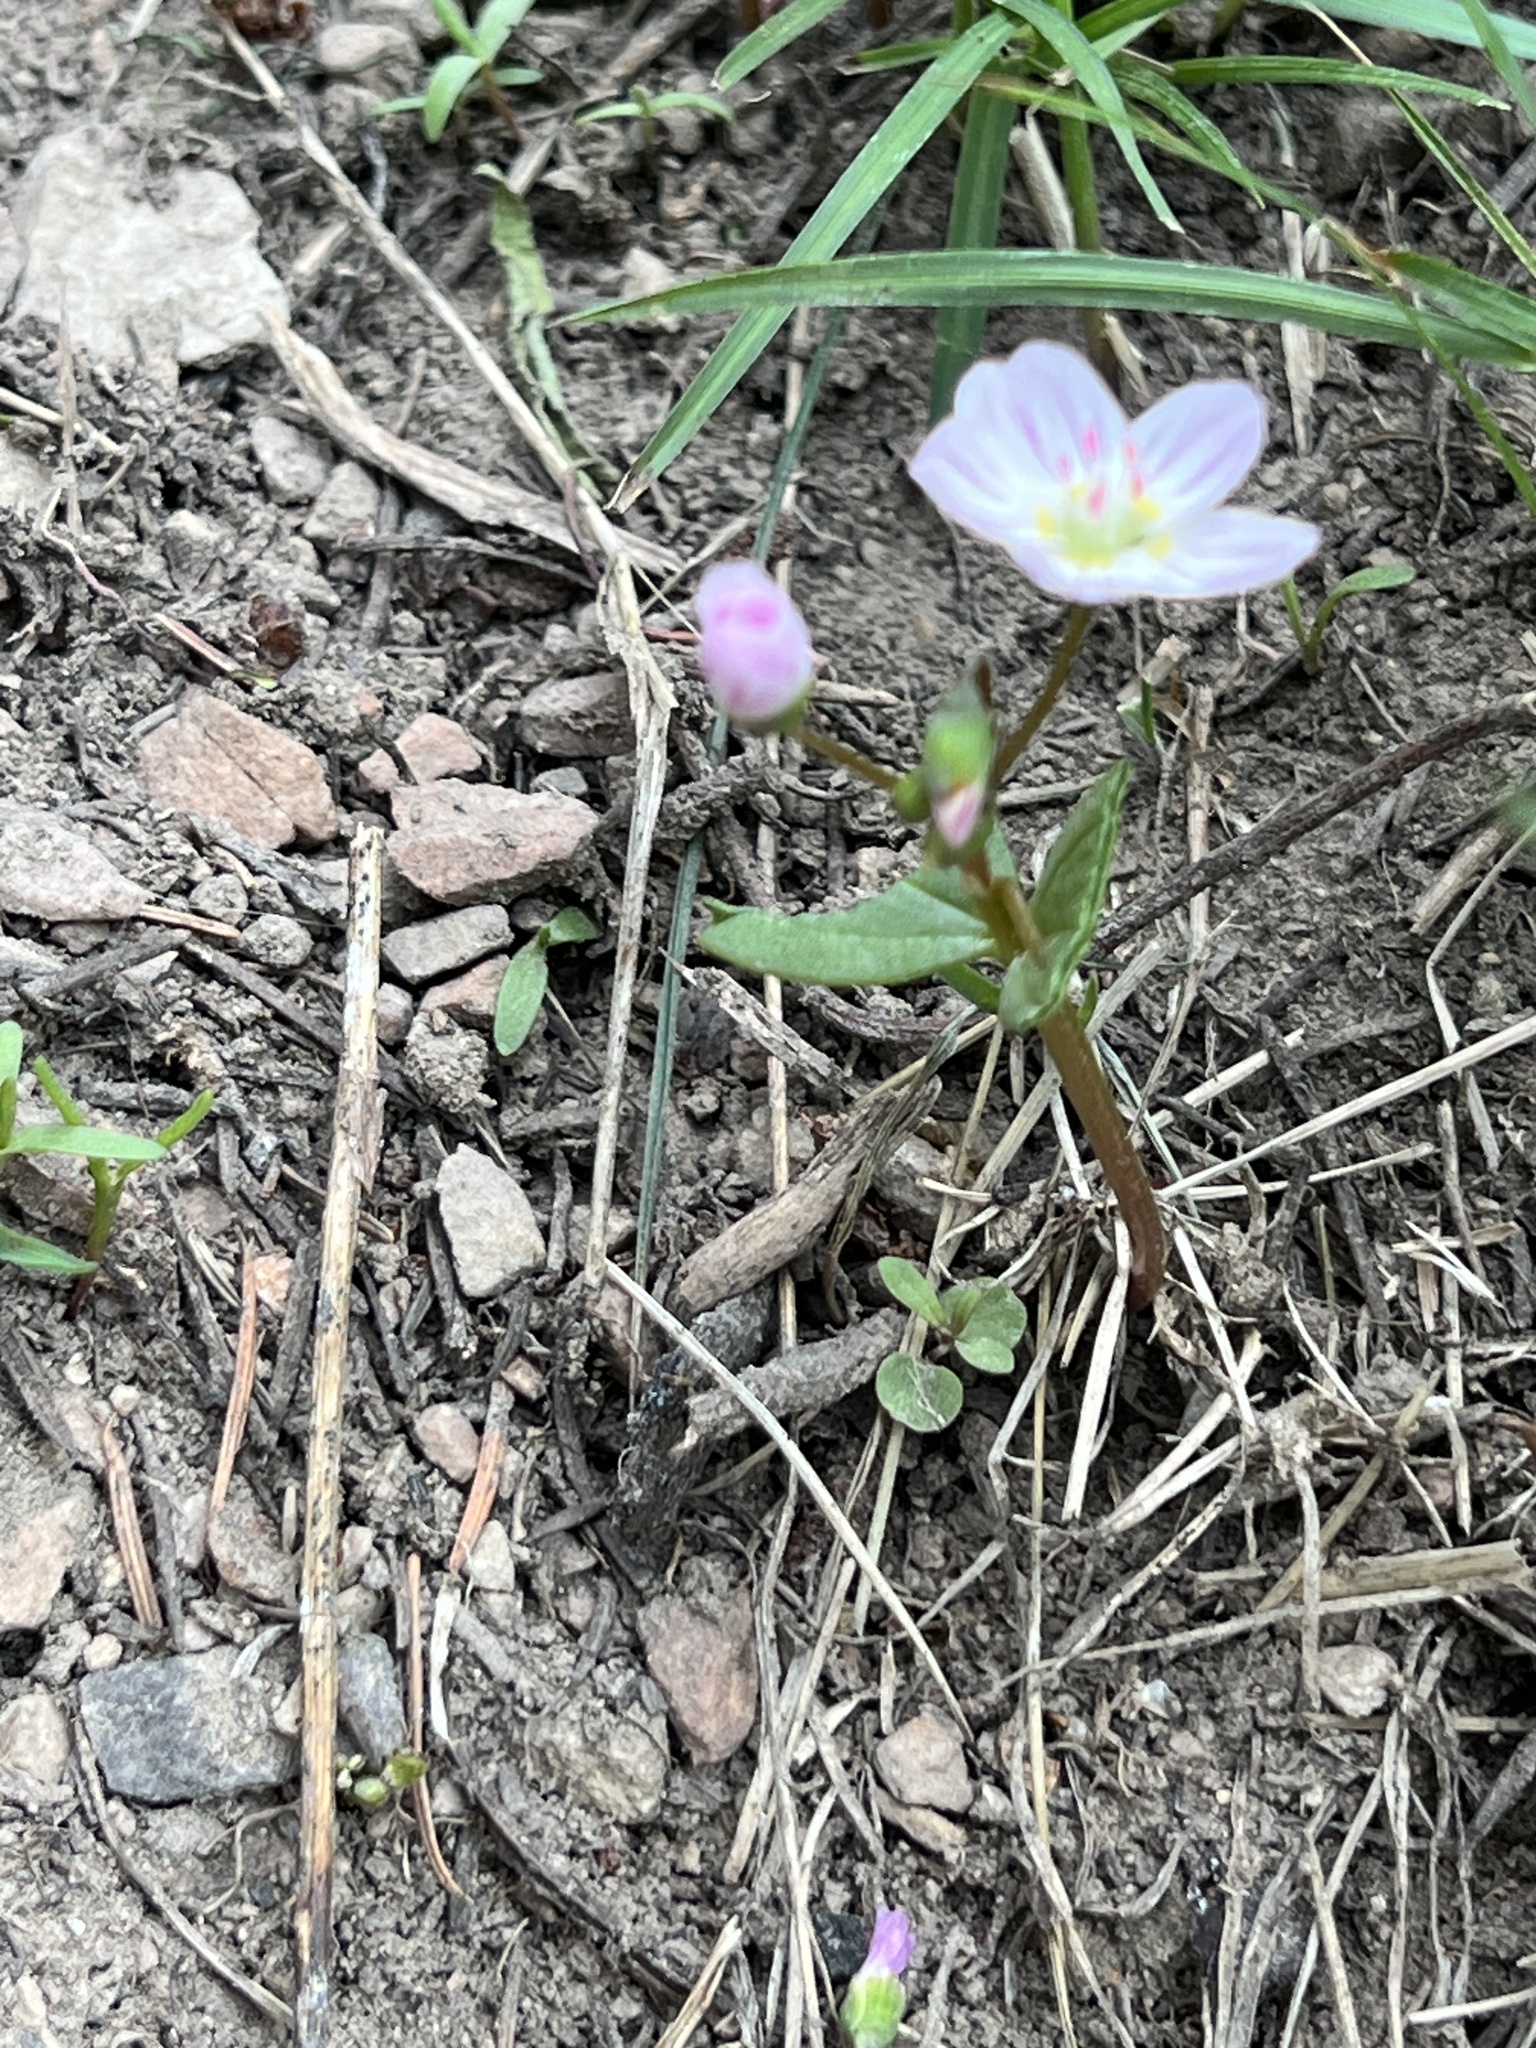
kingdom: Plantae
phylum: Tracheophyta
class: Magnoliopsida
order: Caryophyllales
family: Montiaceae
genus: Claytonia
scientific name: Claytonia lanceolata
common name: Western spring-beauty
